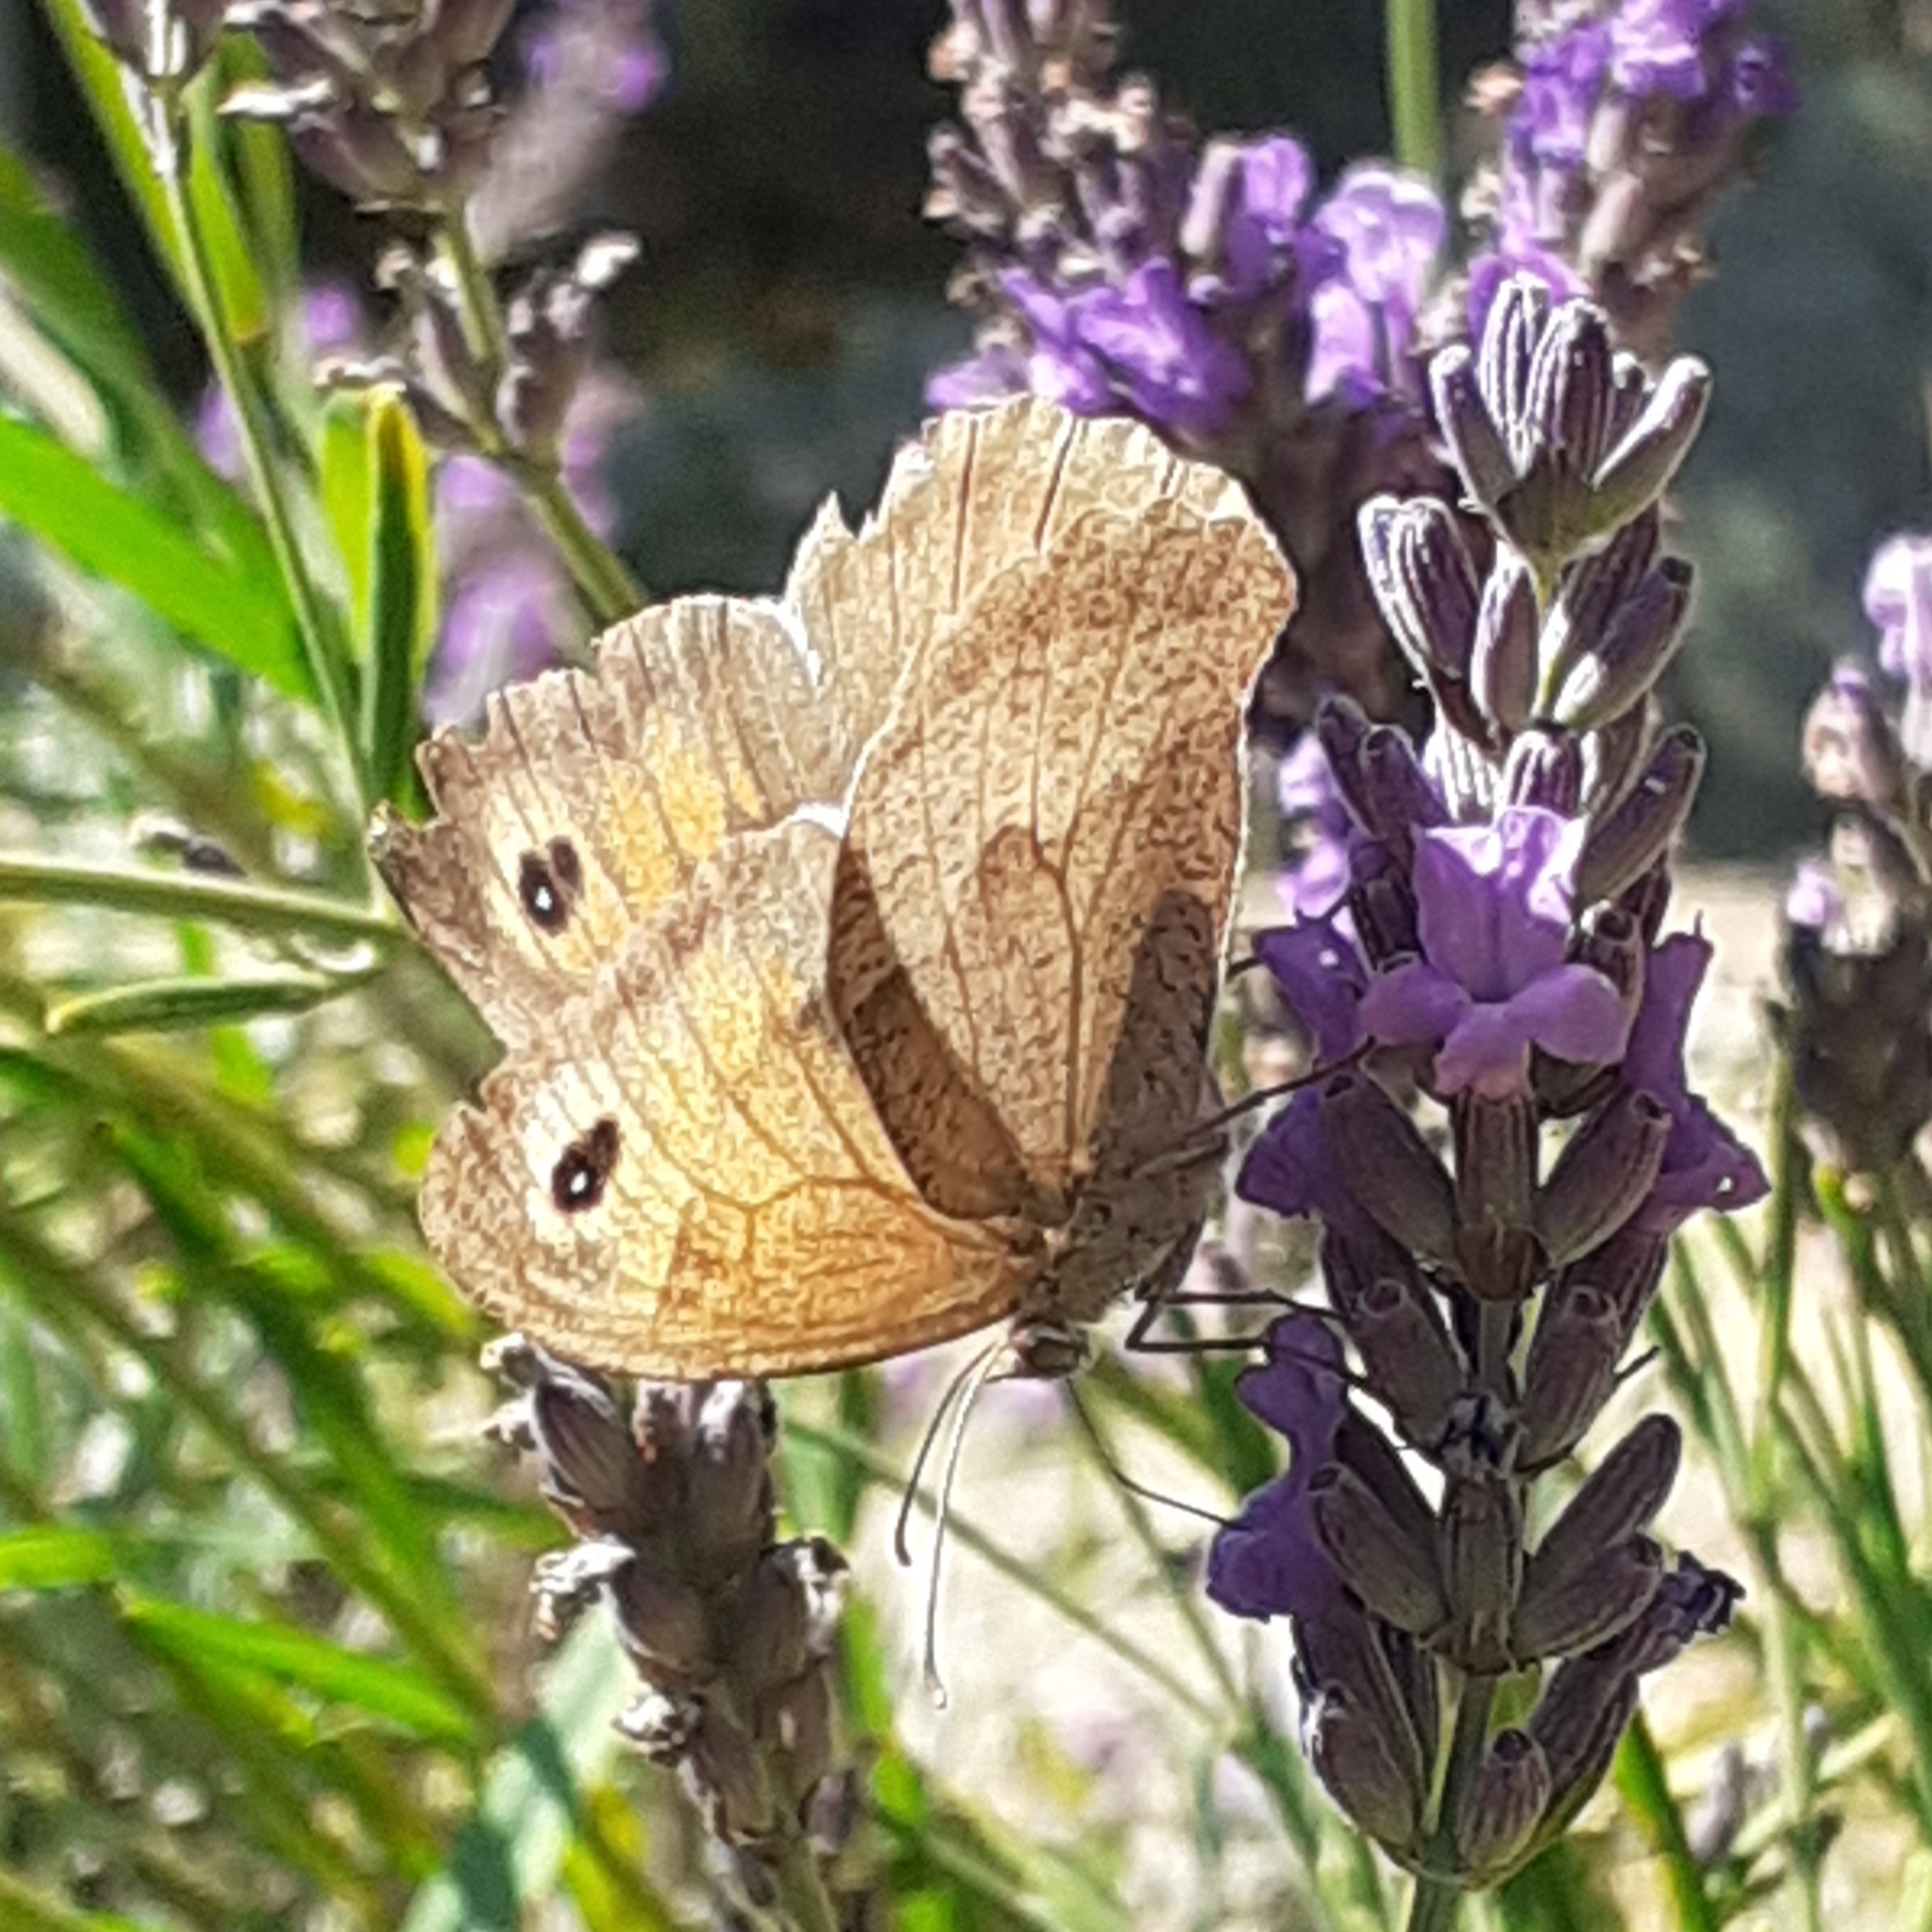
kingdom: Animalia
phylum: Arthropoda
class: Insecta
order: Lepidoptera
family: Nymphalidae
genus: Maniola
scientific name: Maniola jurtina
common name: Meadow brown
